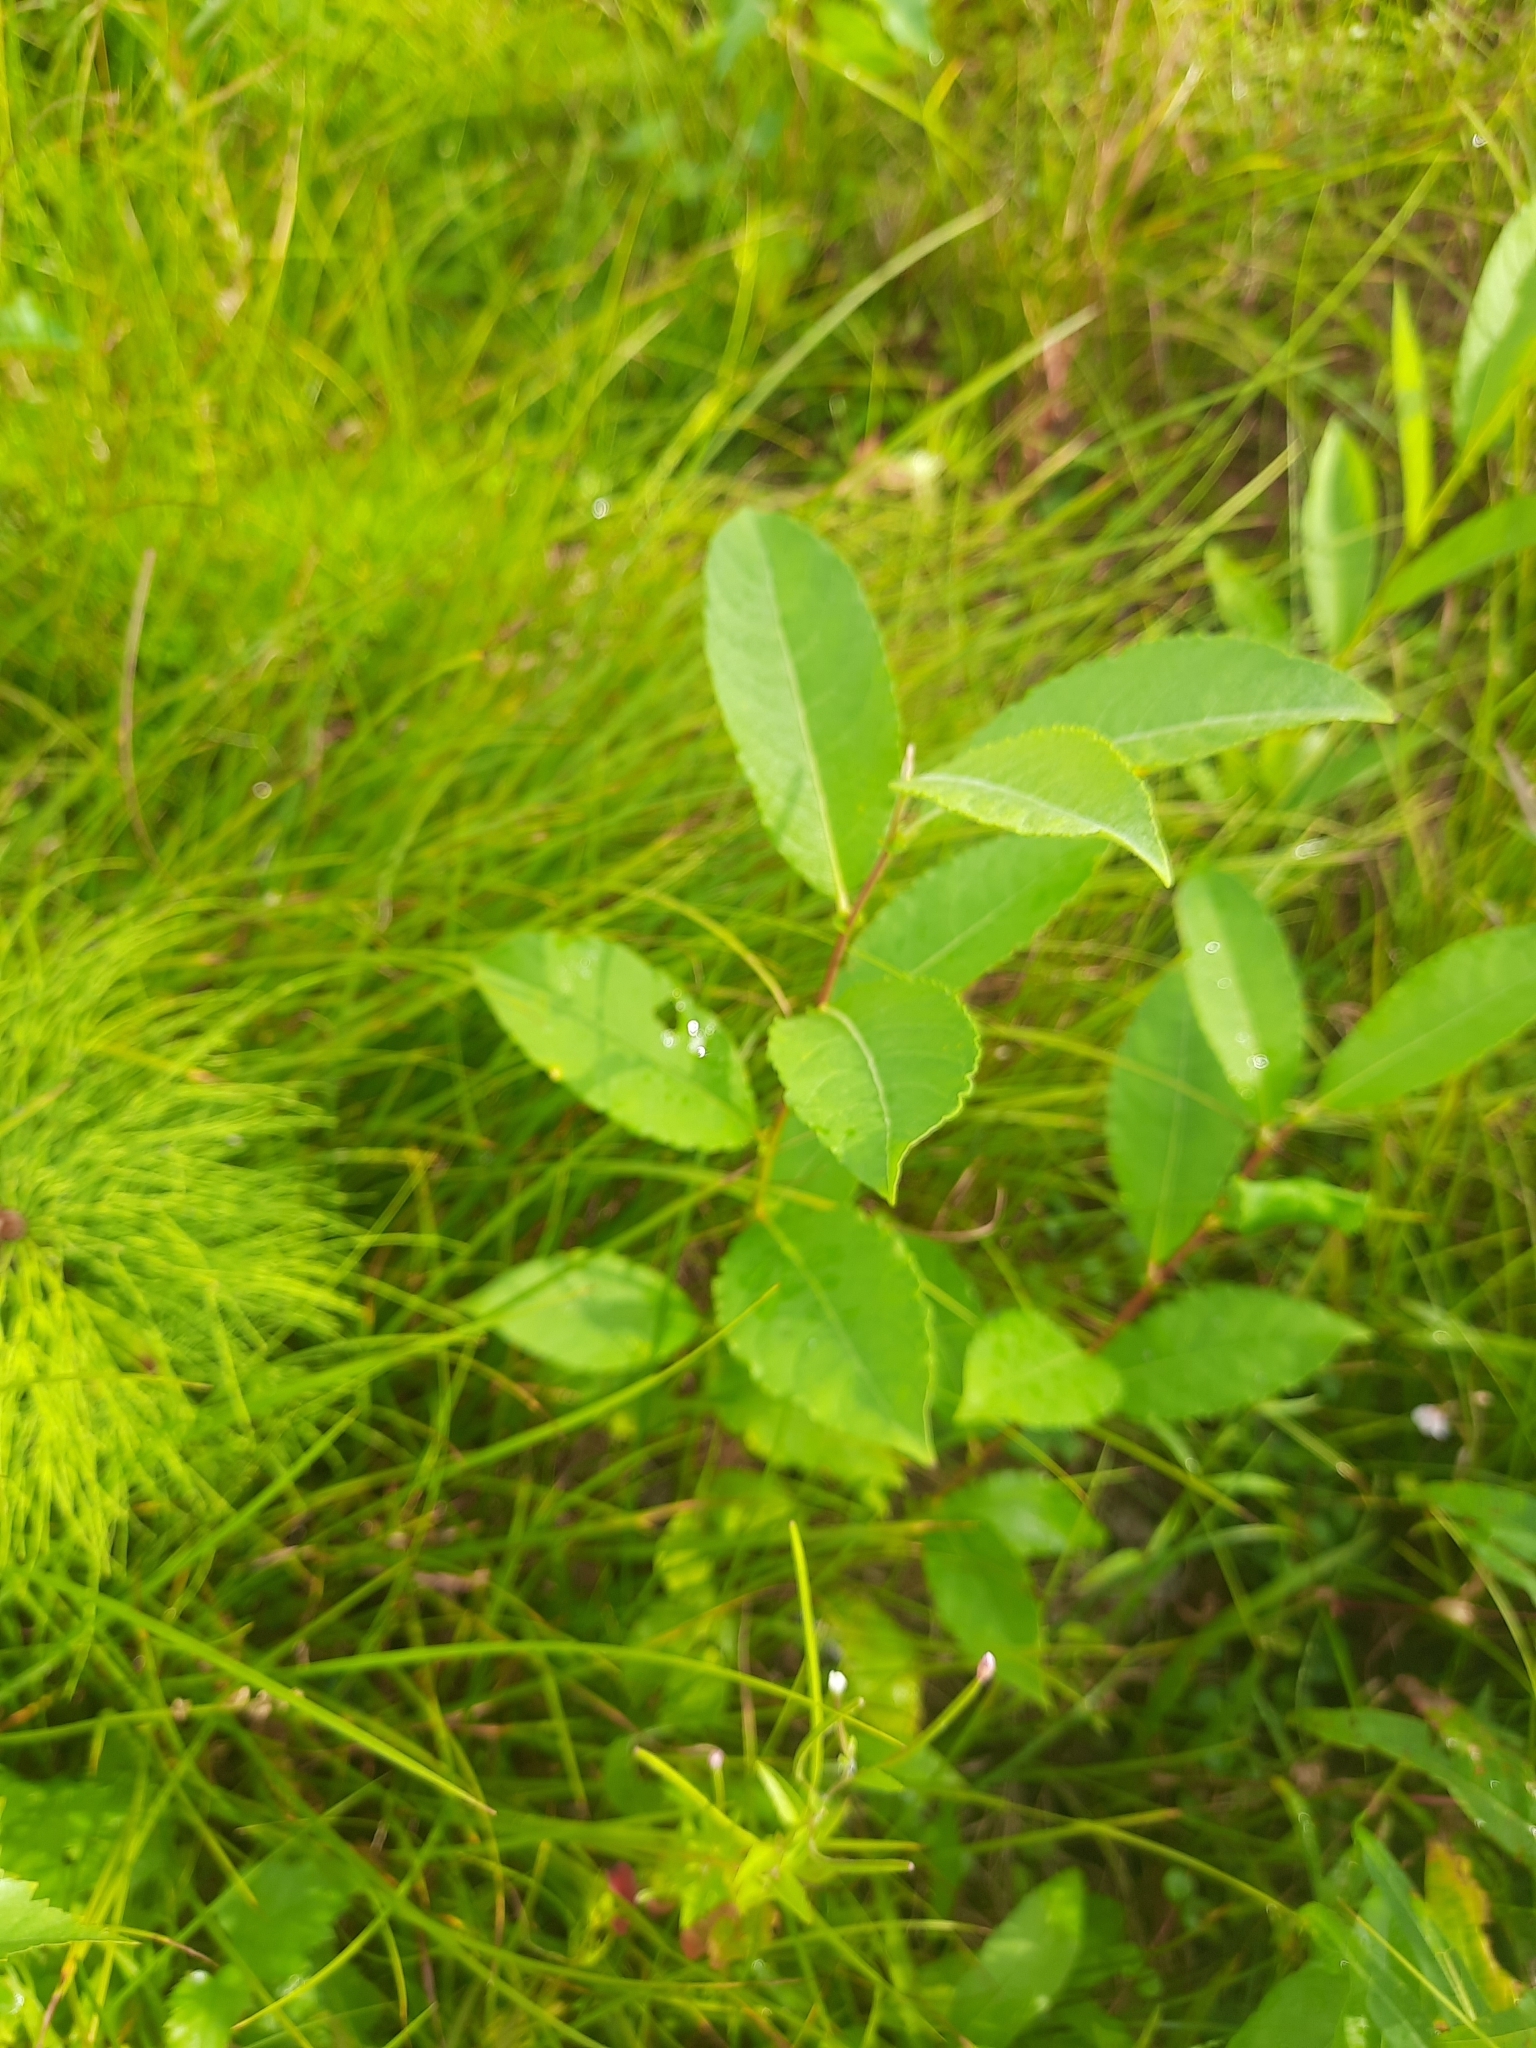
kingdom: Plantae
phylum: Tracheophyta
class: Magnoliopsida
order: Malpighiales
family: Salicaceae
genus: Salix
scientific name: Salix cinerea
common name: Common sallow
